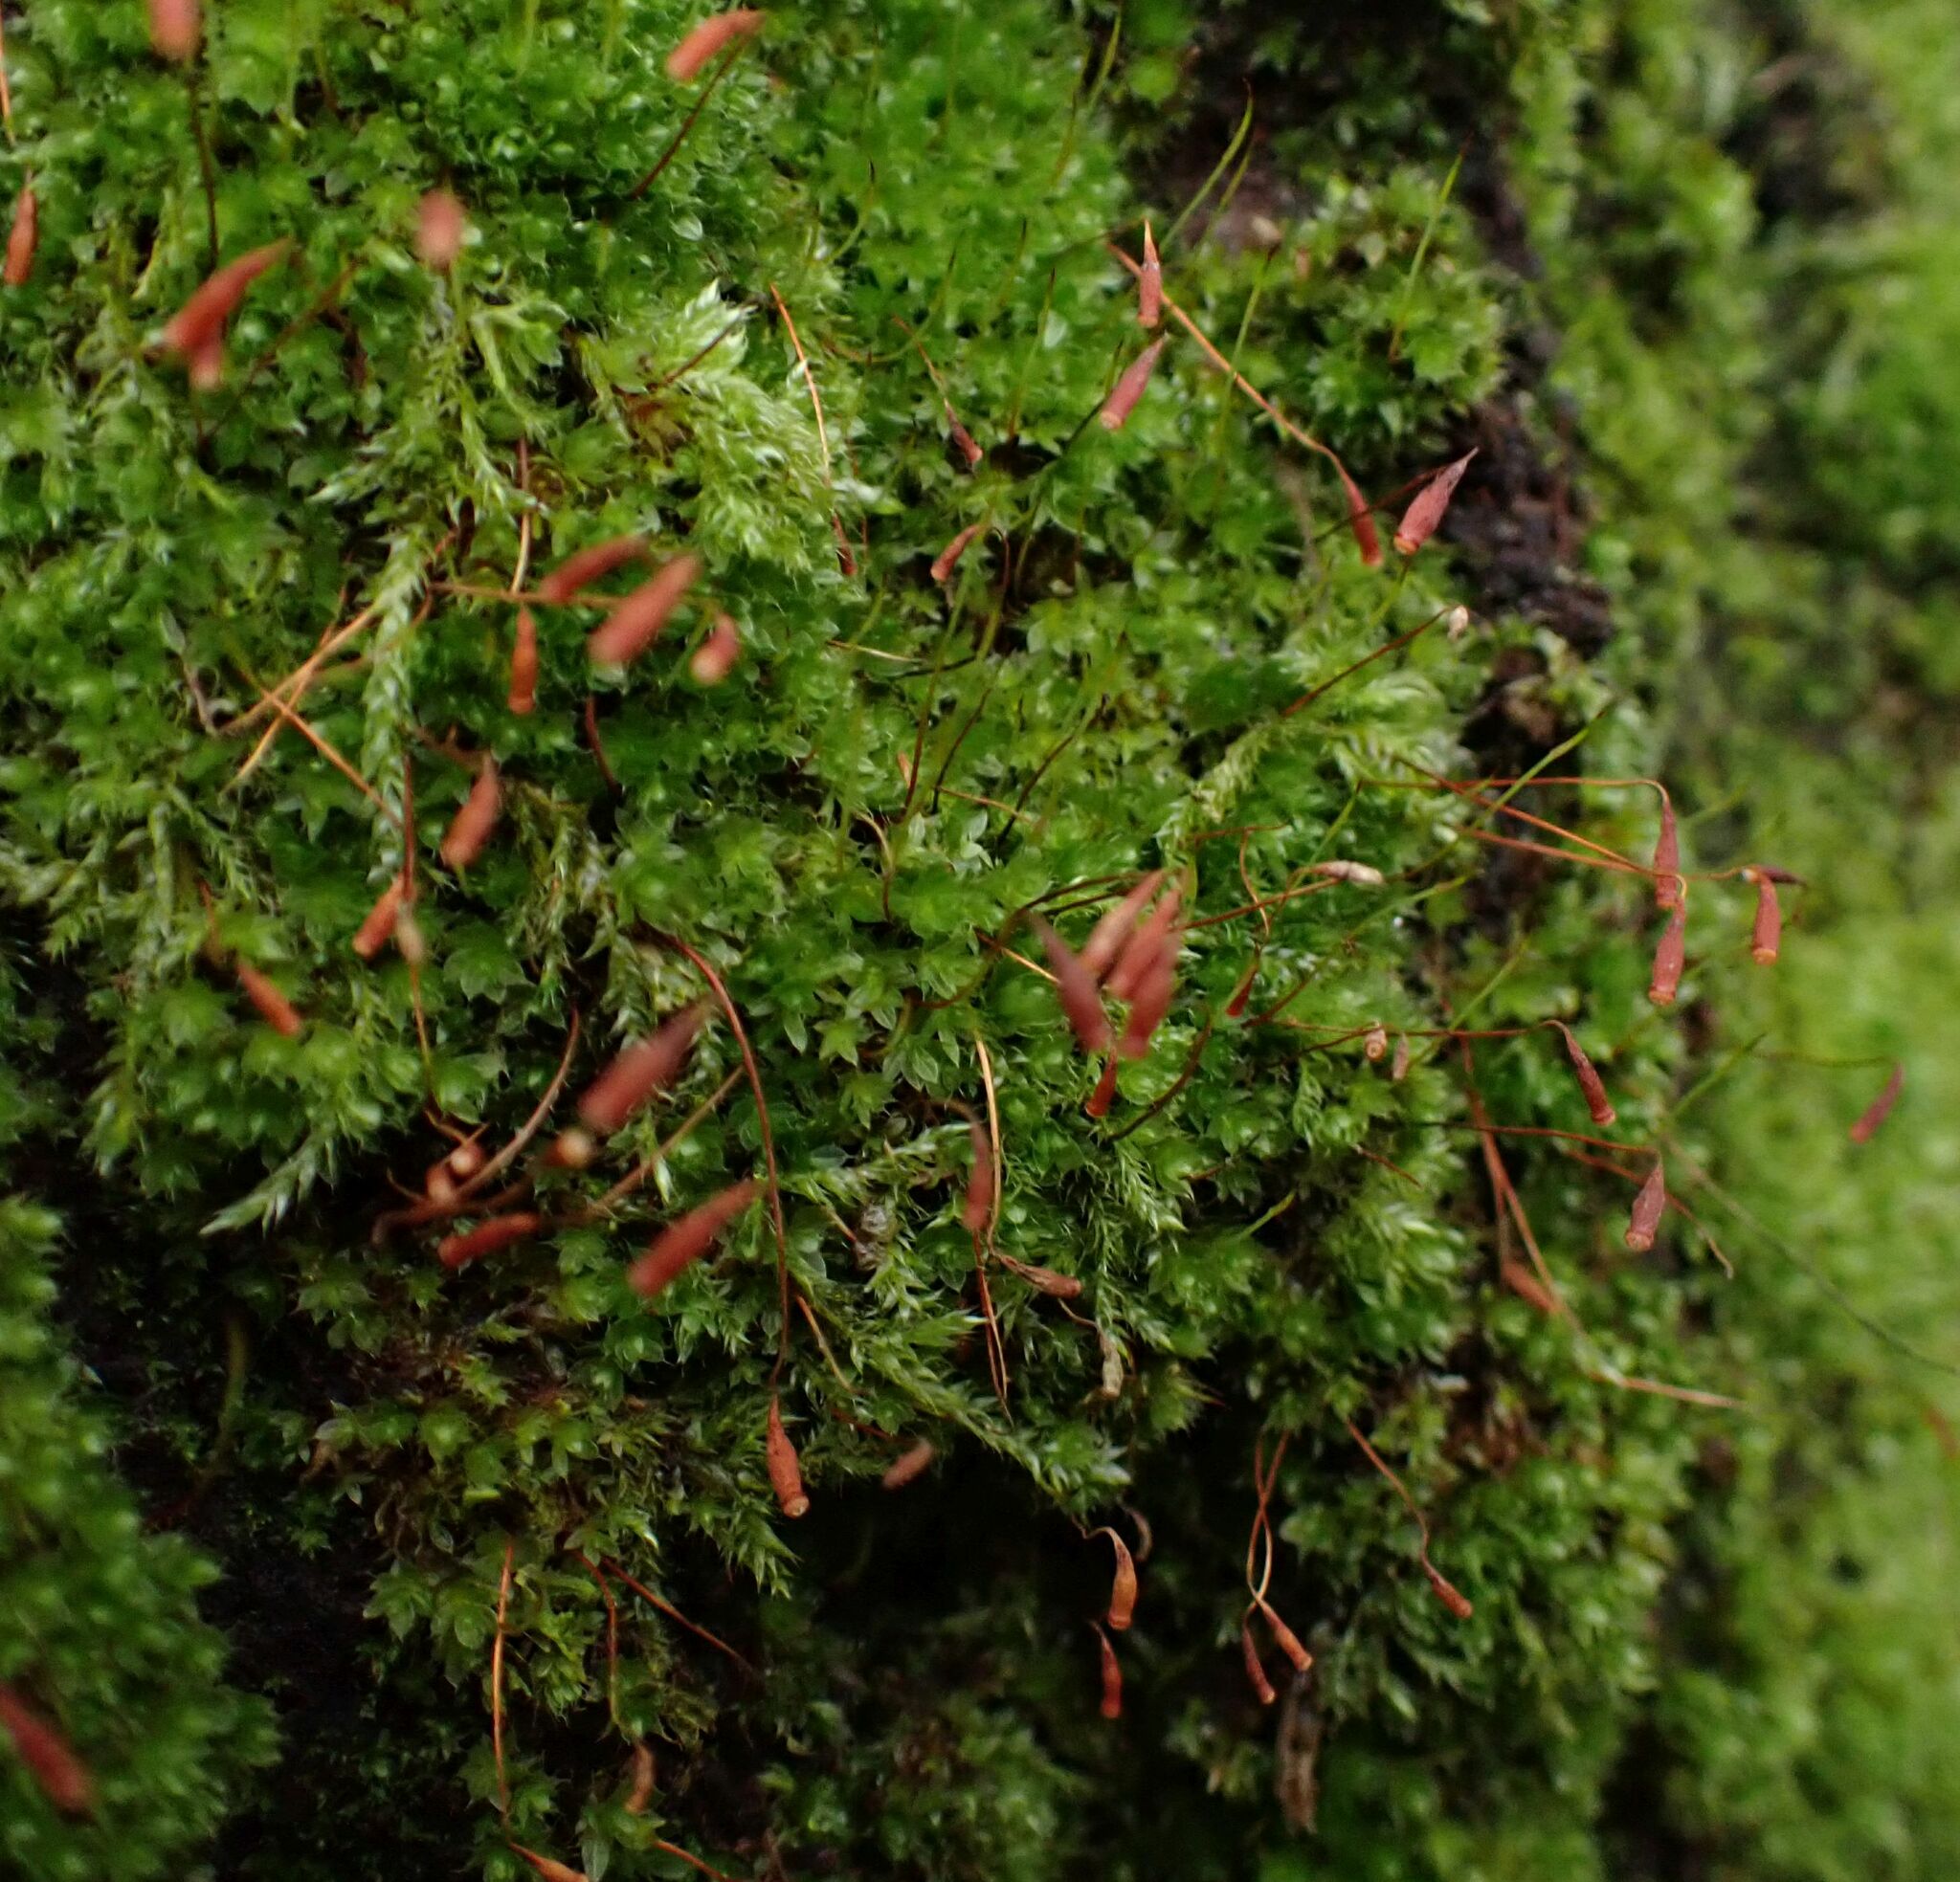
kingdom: Plantae
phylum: Bryophyta
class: Bryopsida
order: Bryales
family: Bryaceae
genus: Rosulabryum
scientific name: Rosulabryum capillare
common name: Capillary thread-moss
